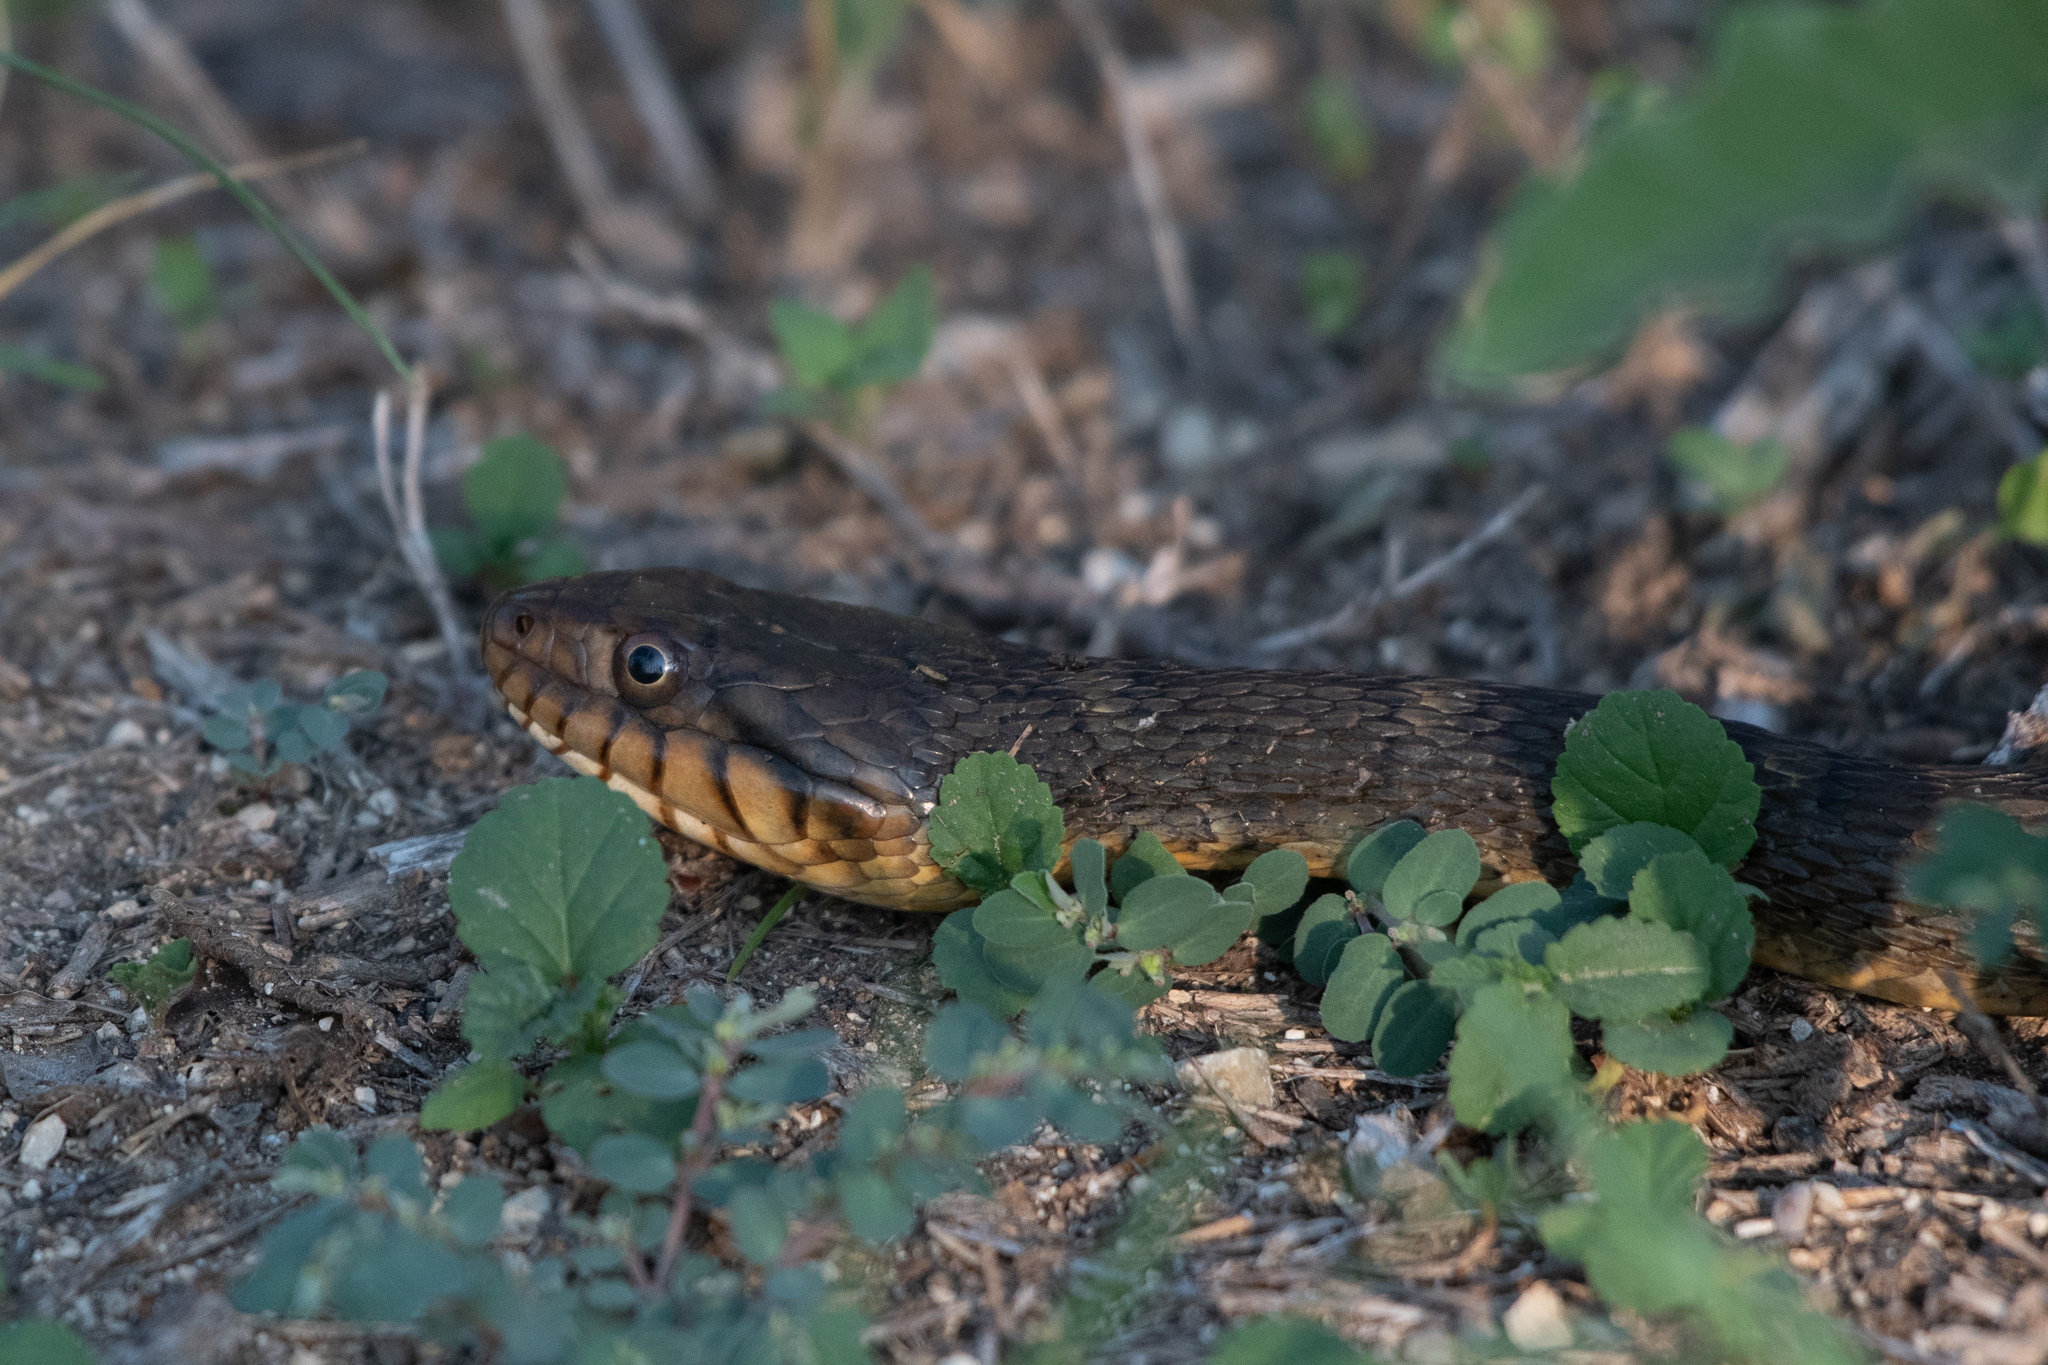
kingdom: Animalia
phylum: Chordata
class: Squamata
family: Colubridae
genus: Nerodia
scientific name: Nerodia erythrogaster
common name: Plainbelly water snake
